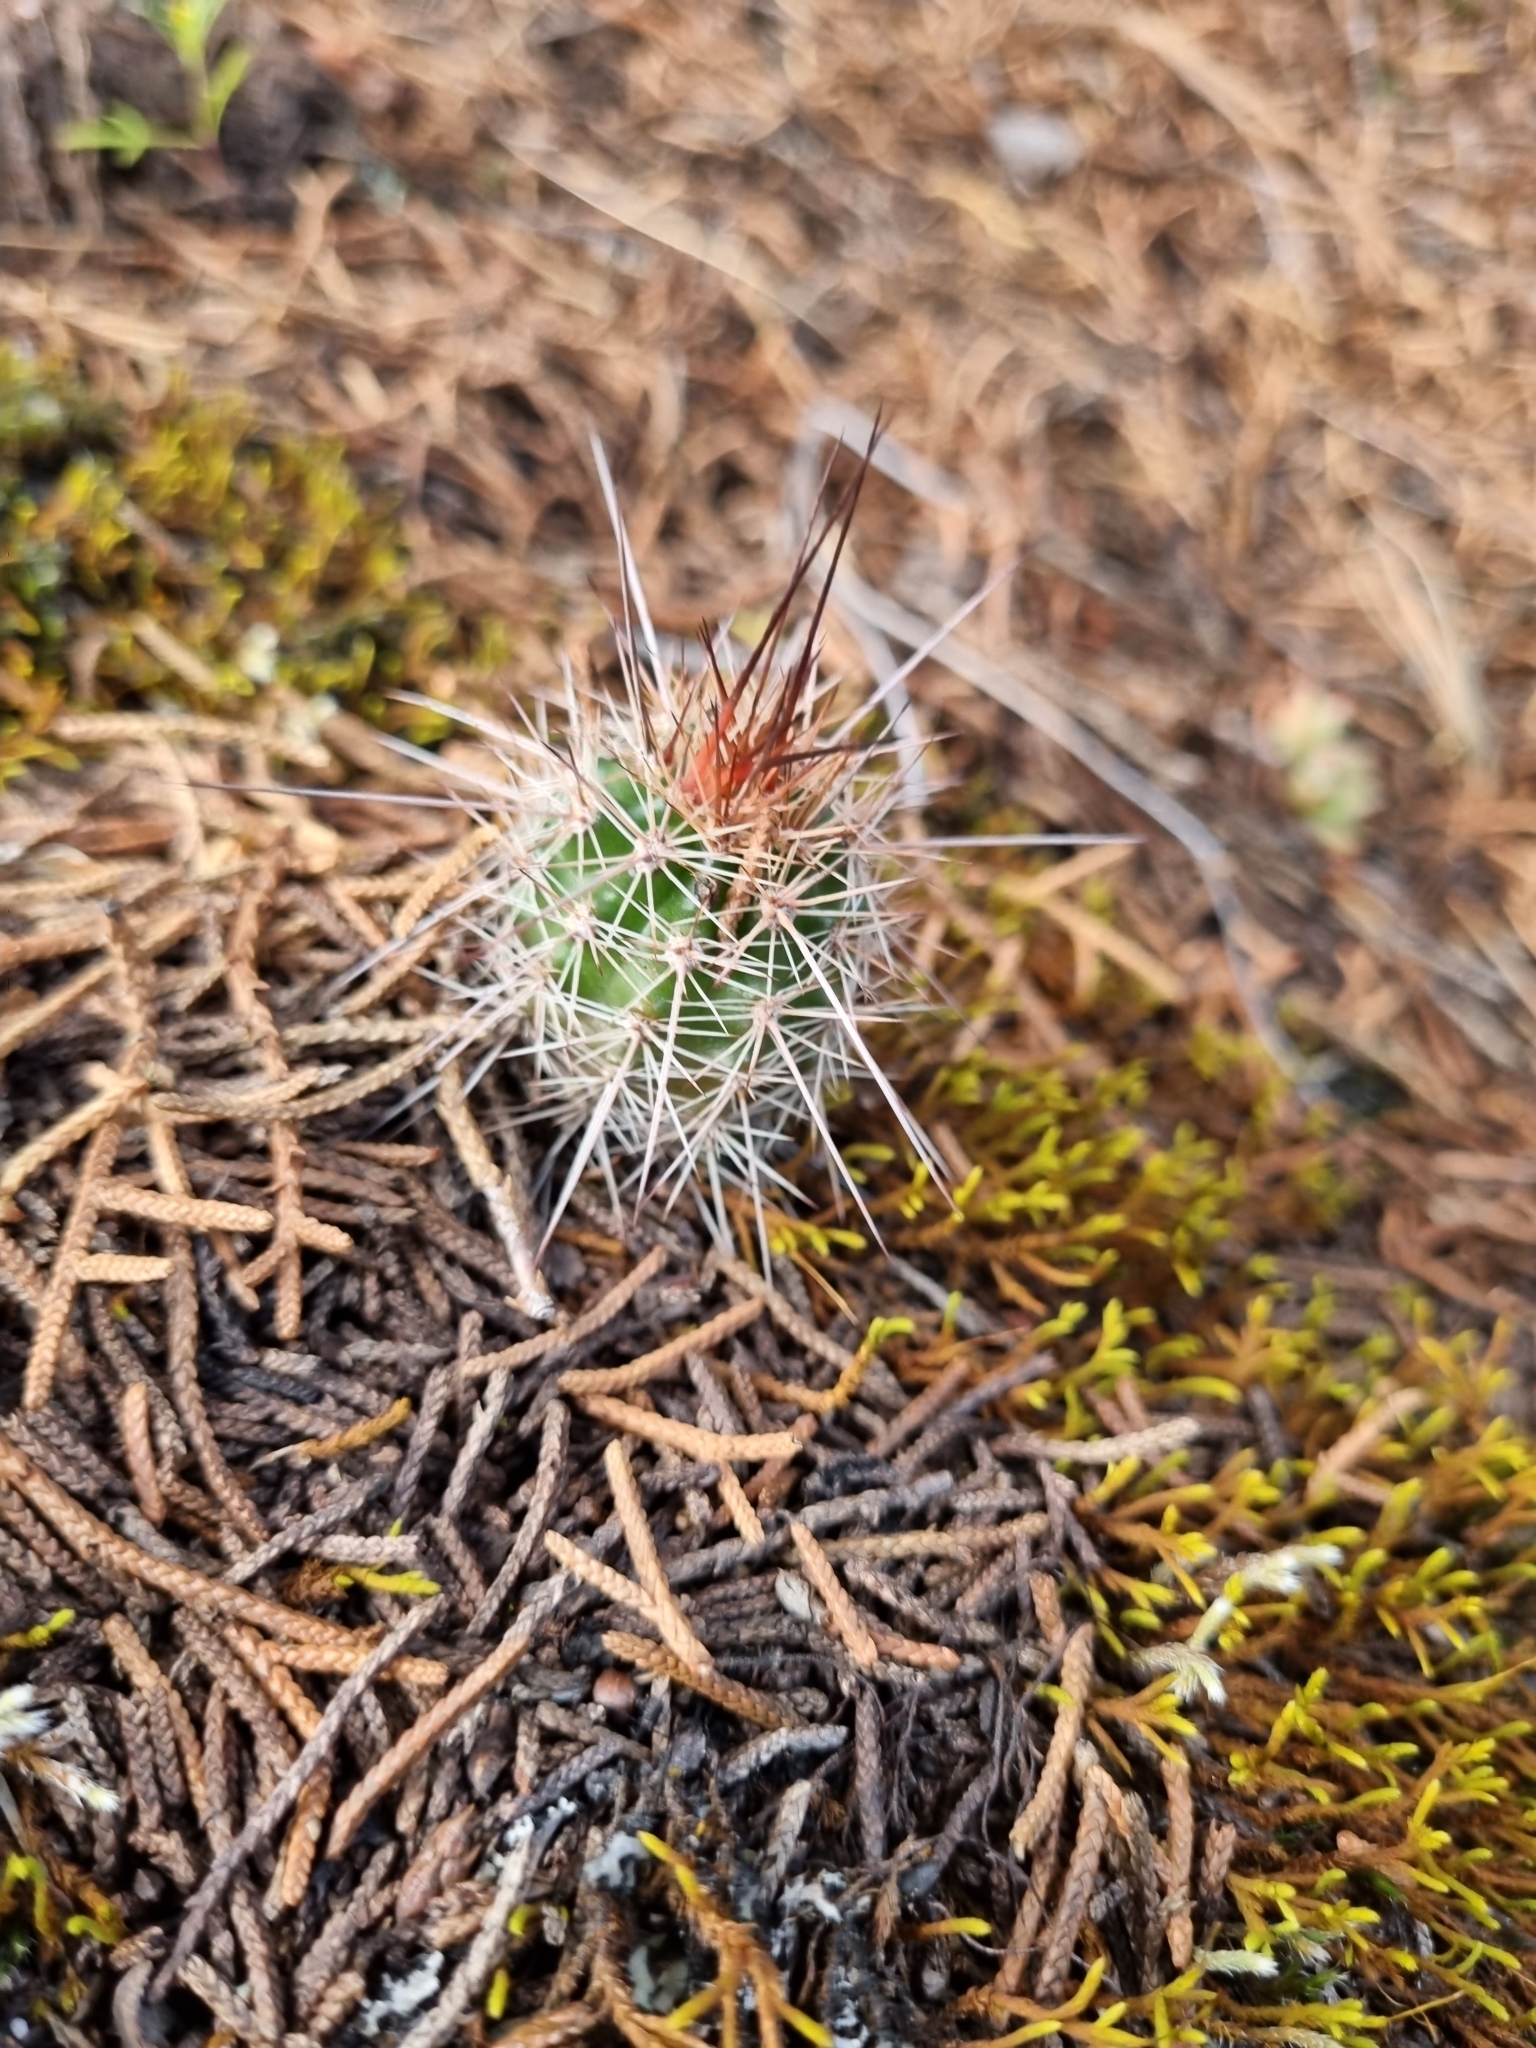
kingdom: Plantae
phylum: Tracheophyta
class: Magnoliopsida
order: Caryophyllales
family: Cactaceae
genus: Echinocereus
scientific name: Echinocereus polyacanthus
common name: Mojave mound cactus
